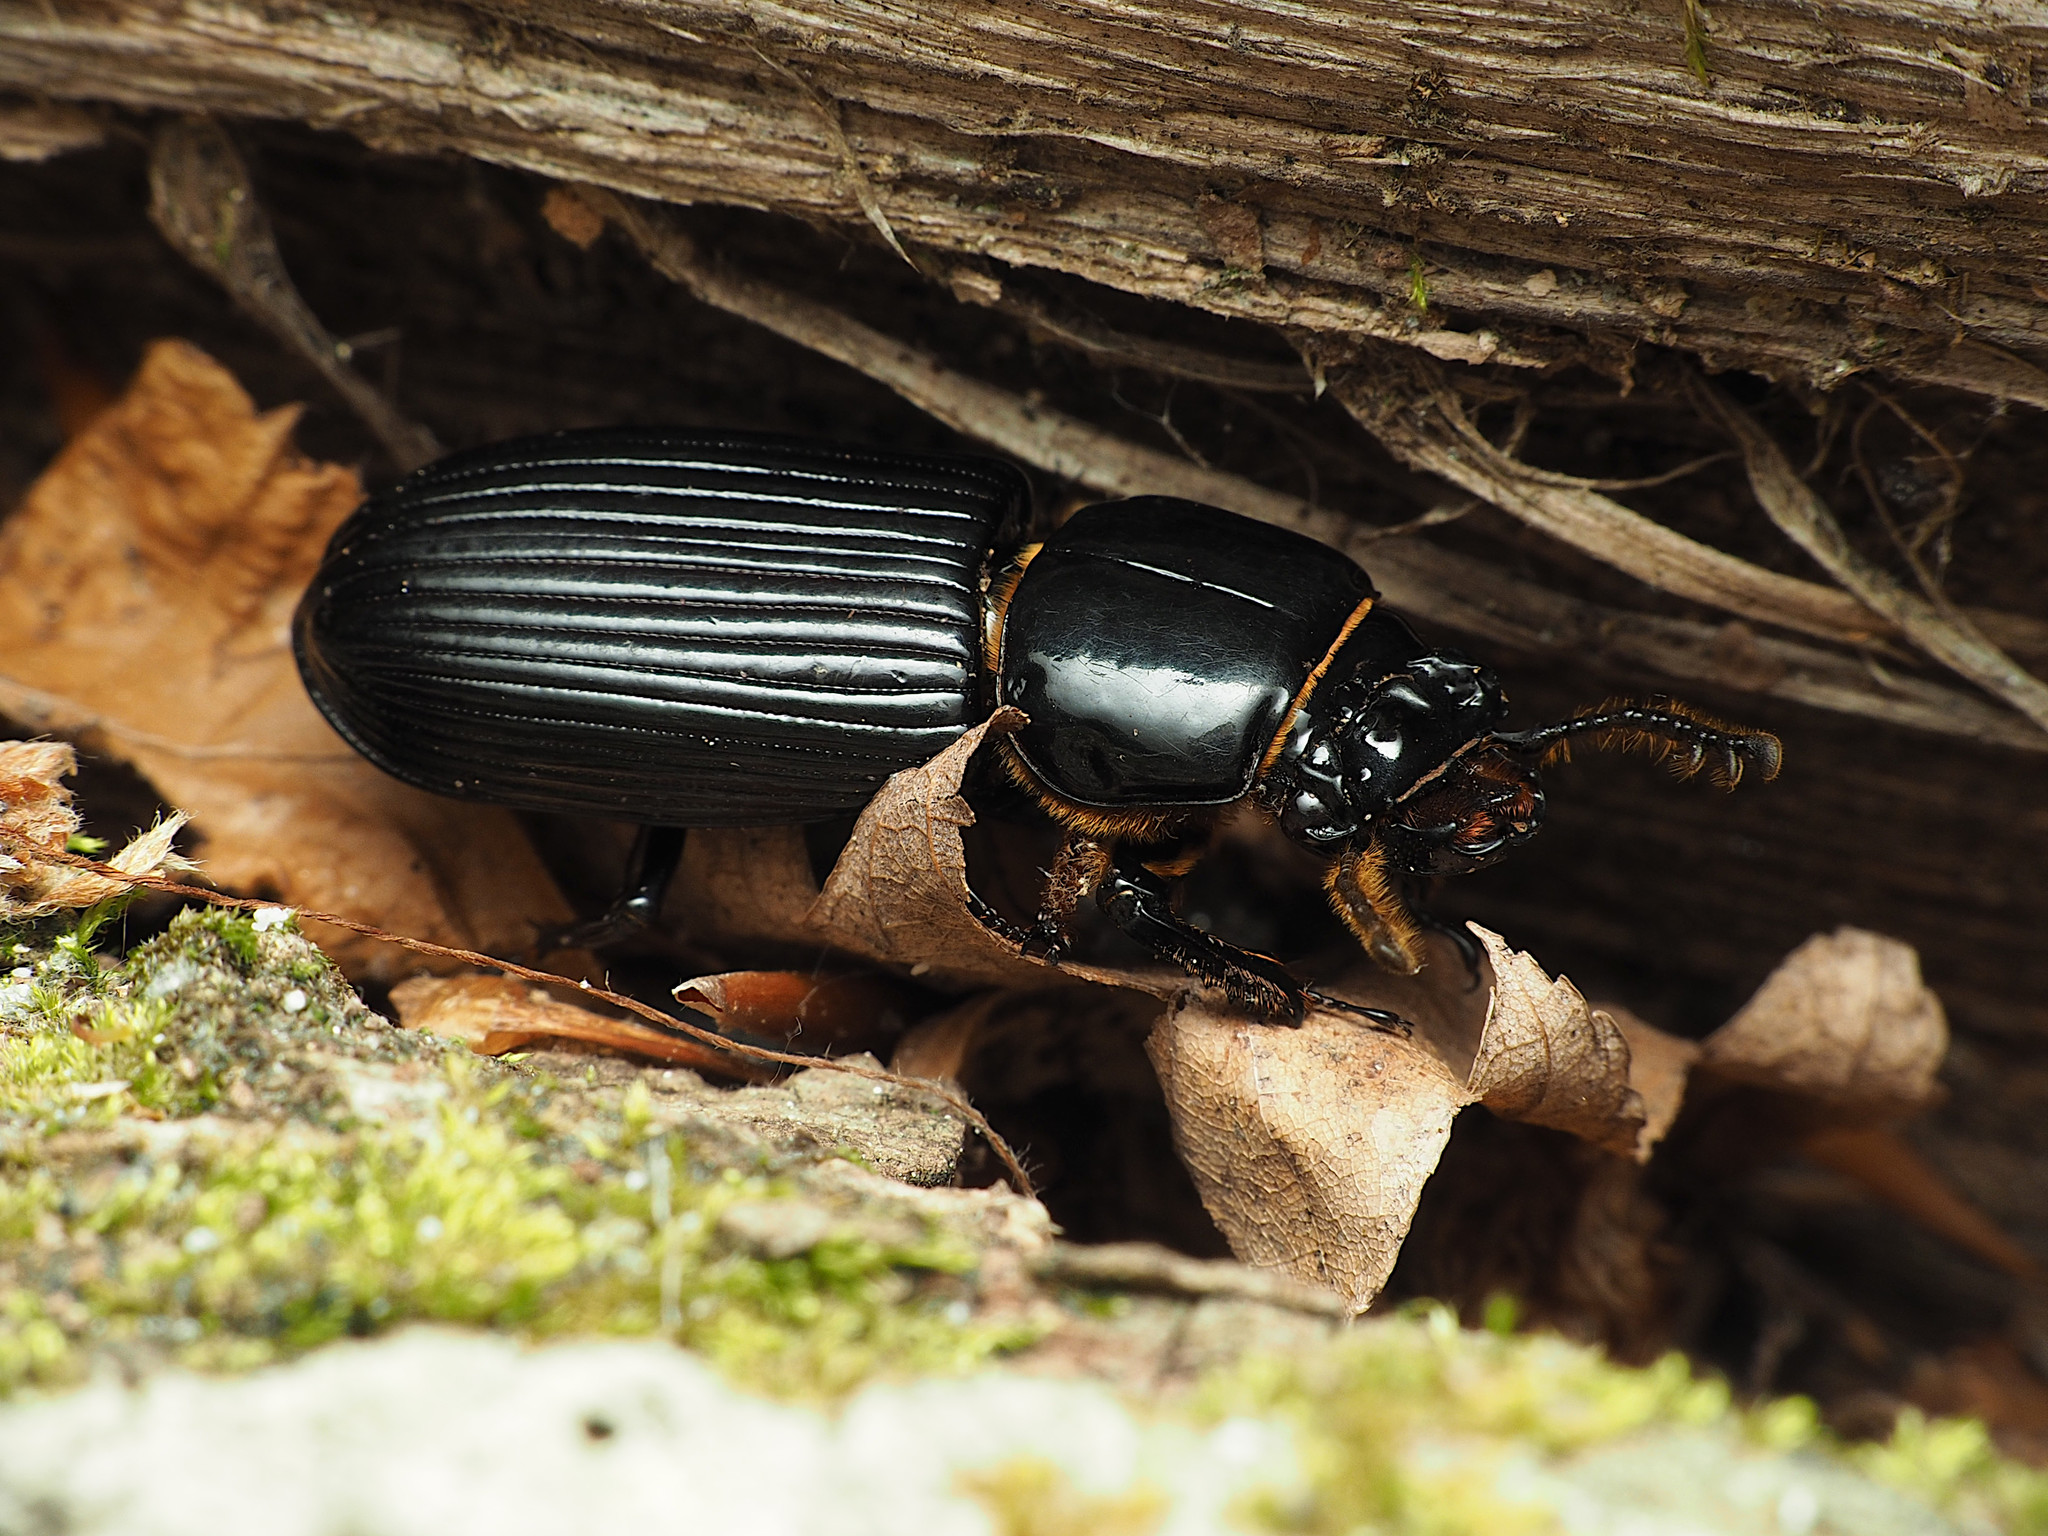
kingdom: Animalia
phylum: Arthropoda
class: Insecta
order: Coleoptera
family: Passalidae
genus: Odontotaenius
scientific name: Odontotaenius disjunctus
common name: Patent leather beetle
